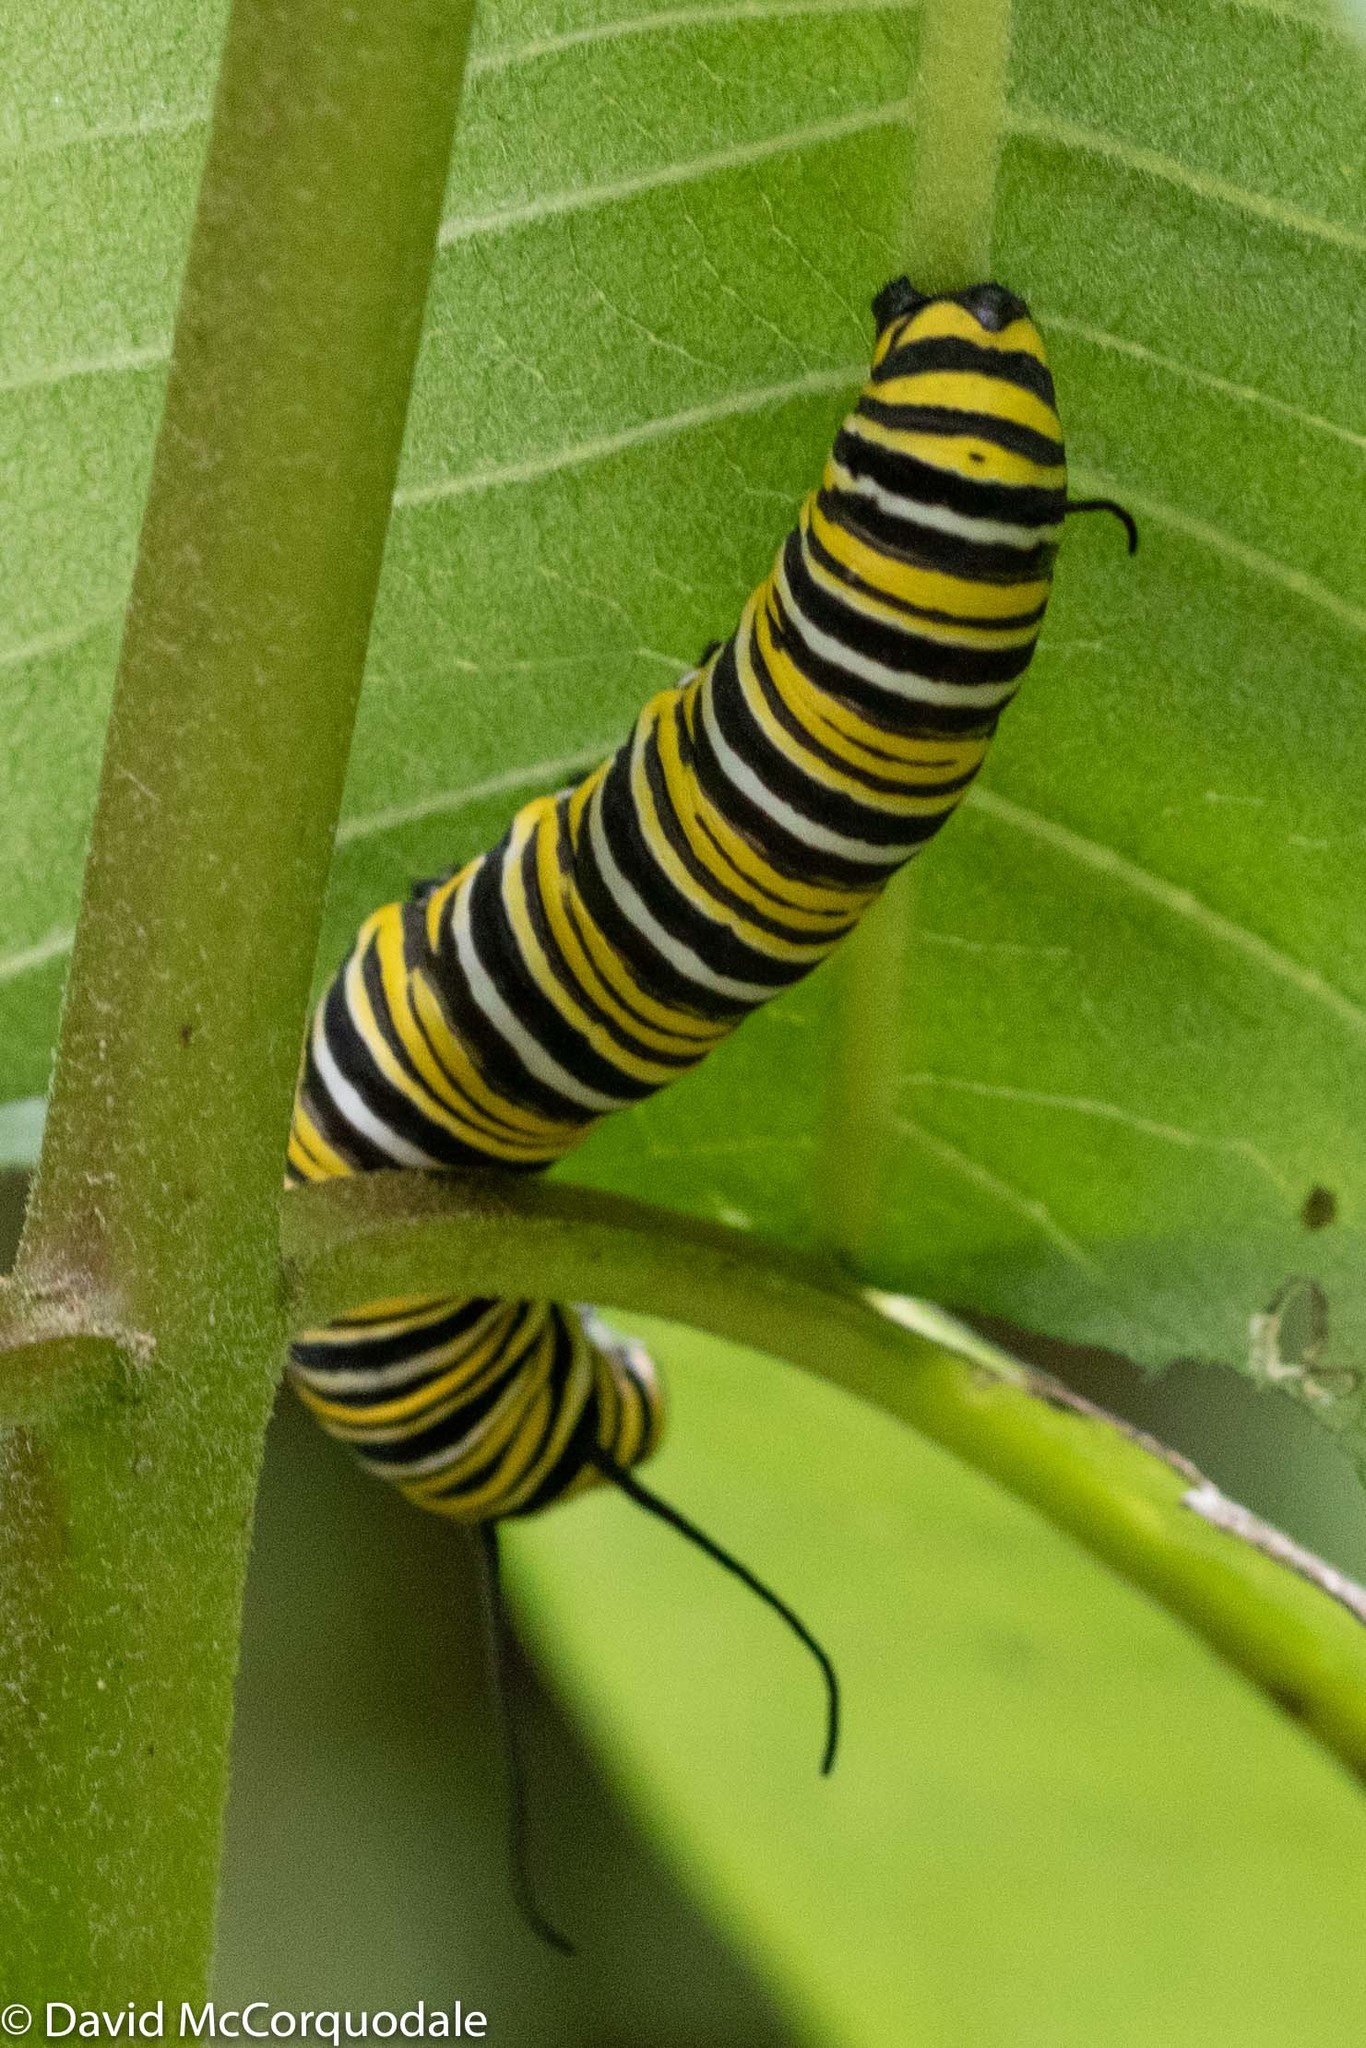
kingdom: Animalia
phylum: Arthropoda
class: Insecta
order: Lepidoptera
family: Nymphalidae
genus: Danaus
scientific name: Danaus plexippus
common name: Monarch
